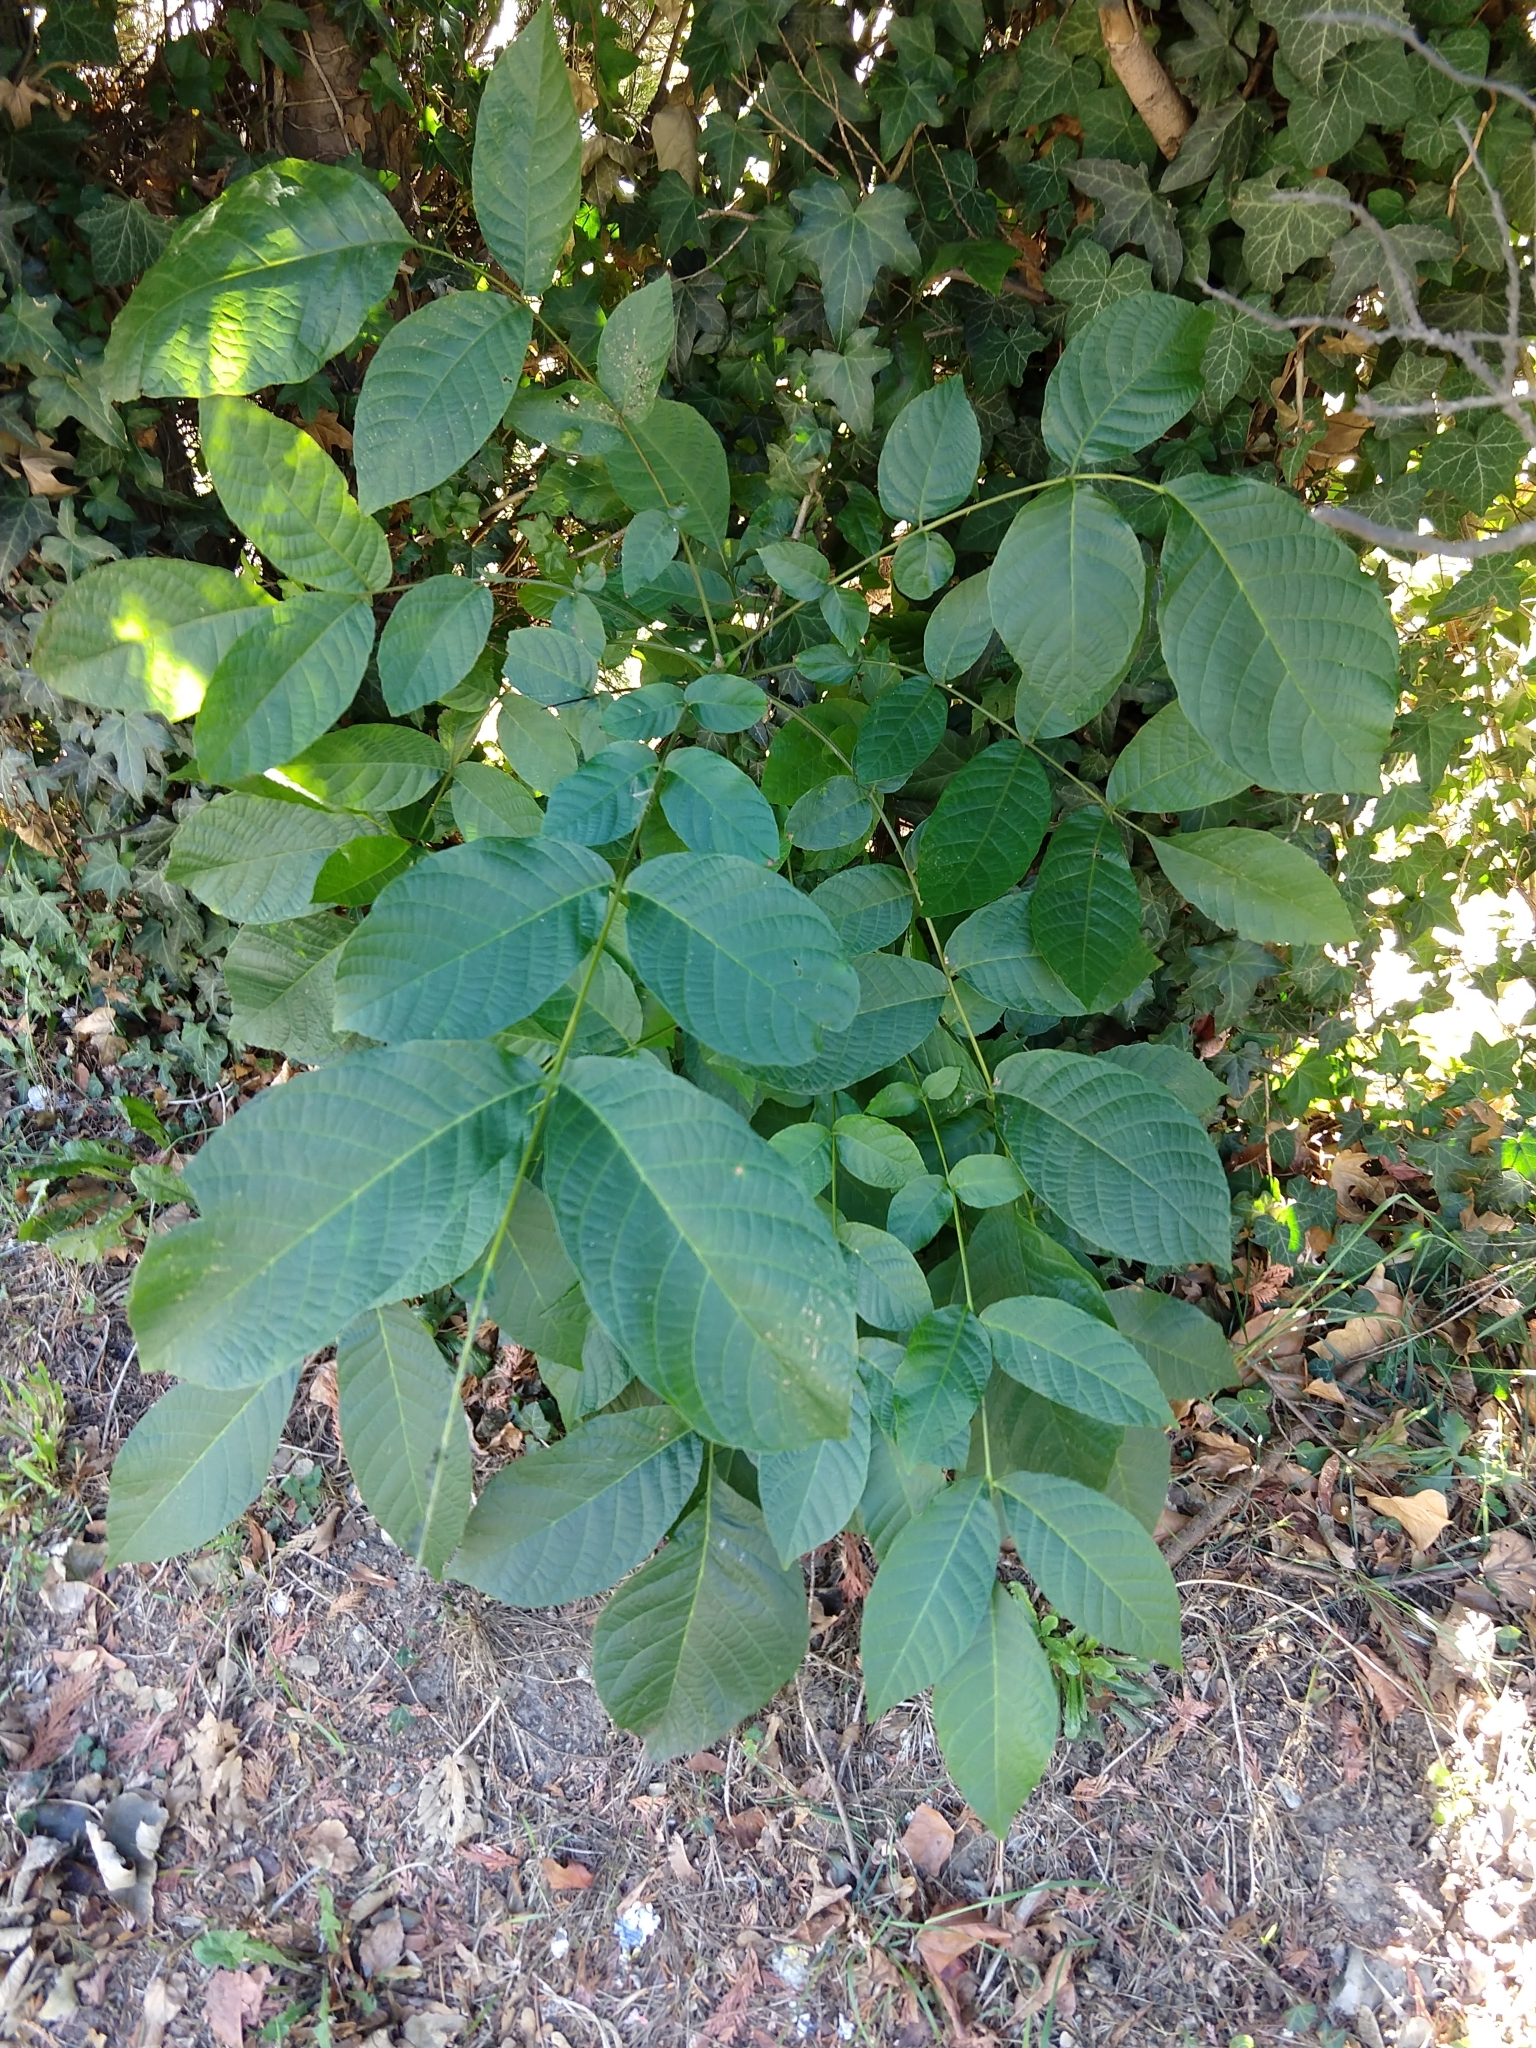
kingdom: Plantae
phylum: Tracheophyta
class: Magnoliopsida
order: Fagales
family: Juglandaceae
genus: Juglans
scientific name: Juglans regia
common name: Walnut
